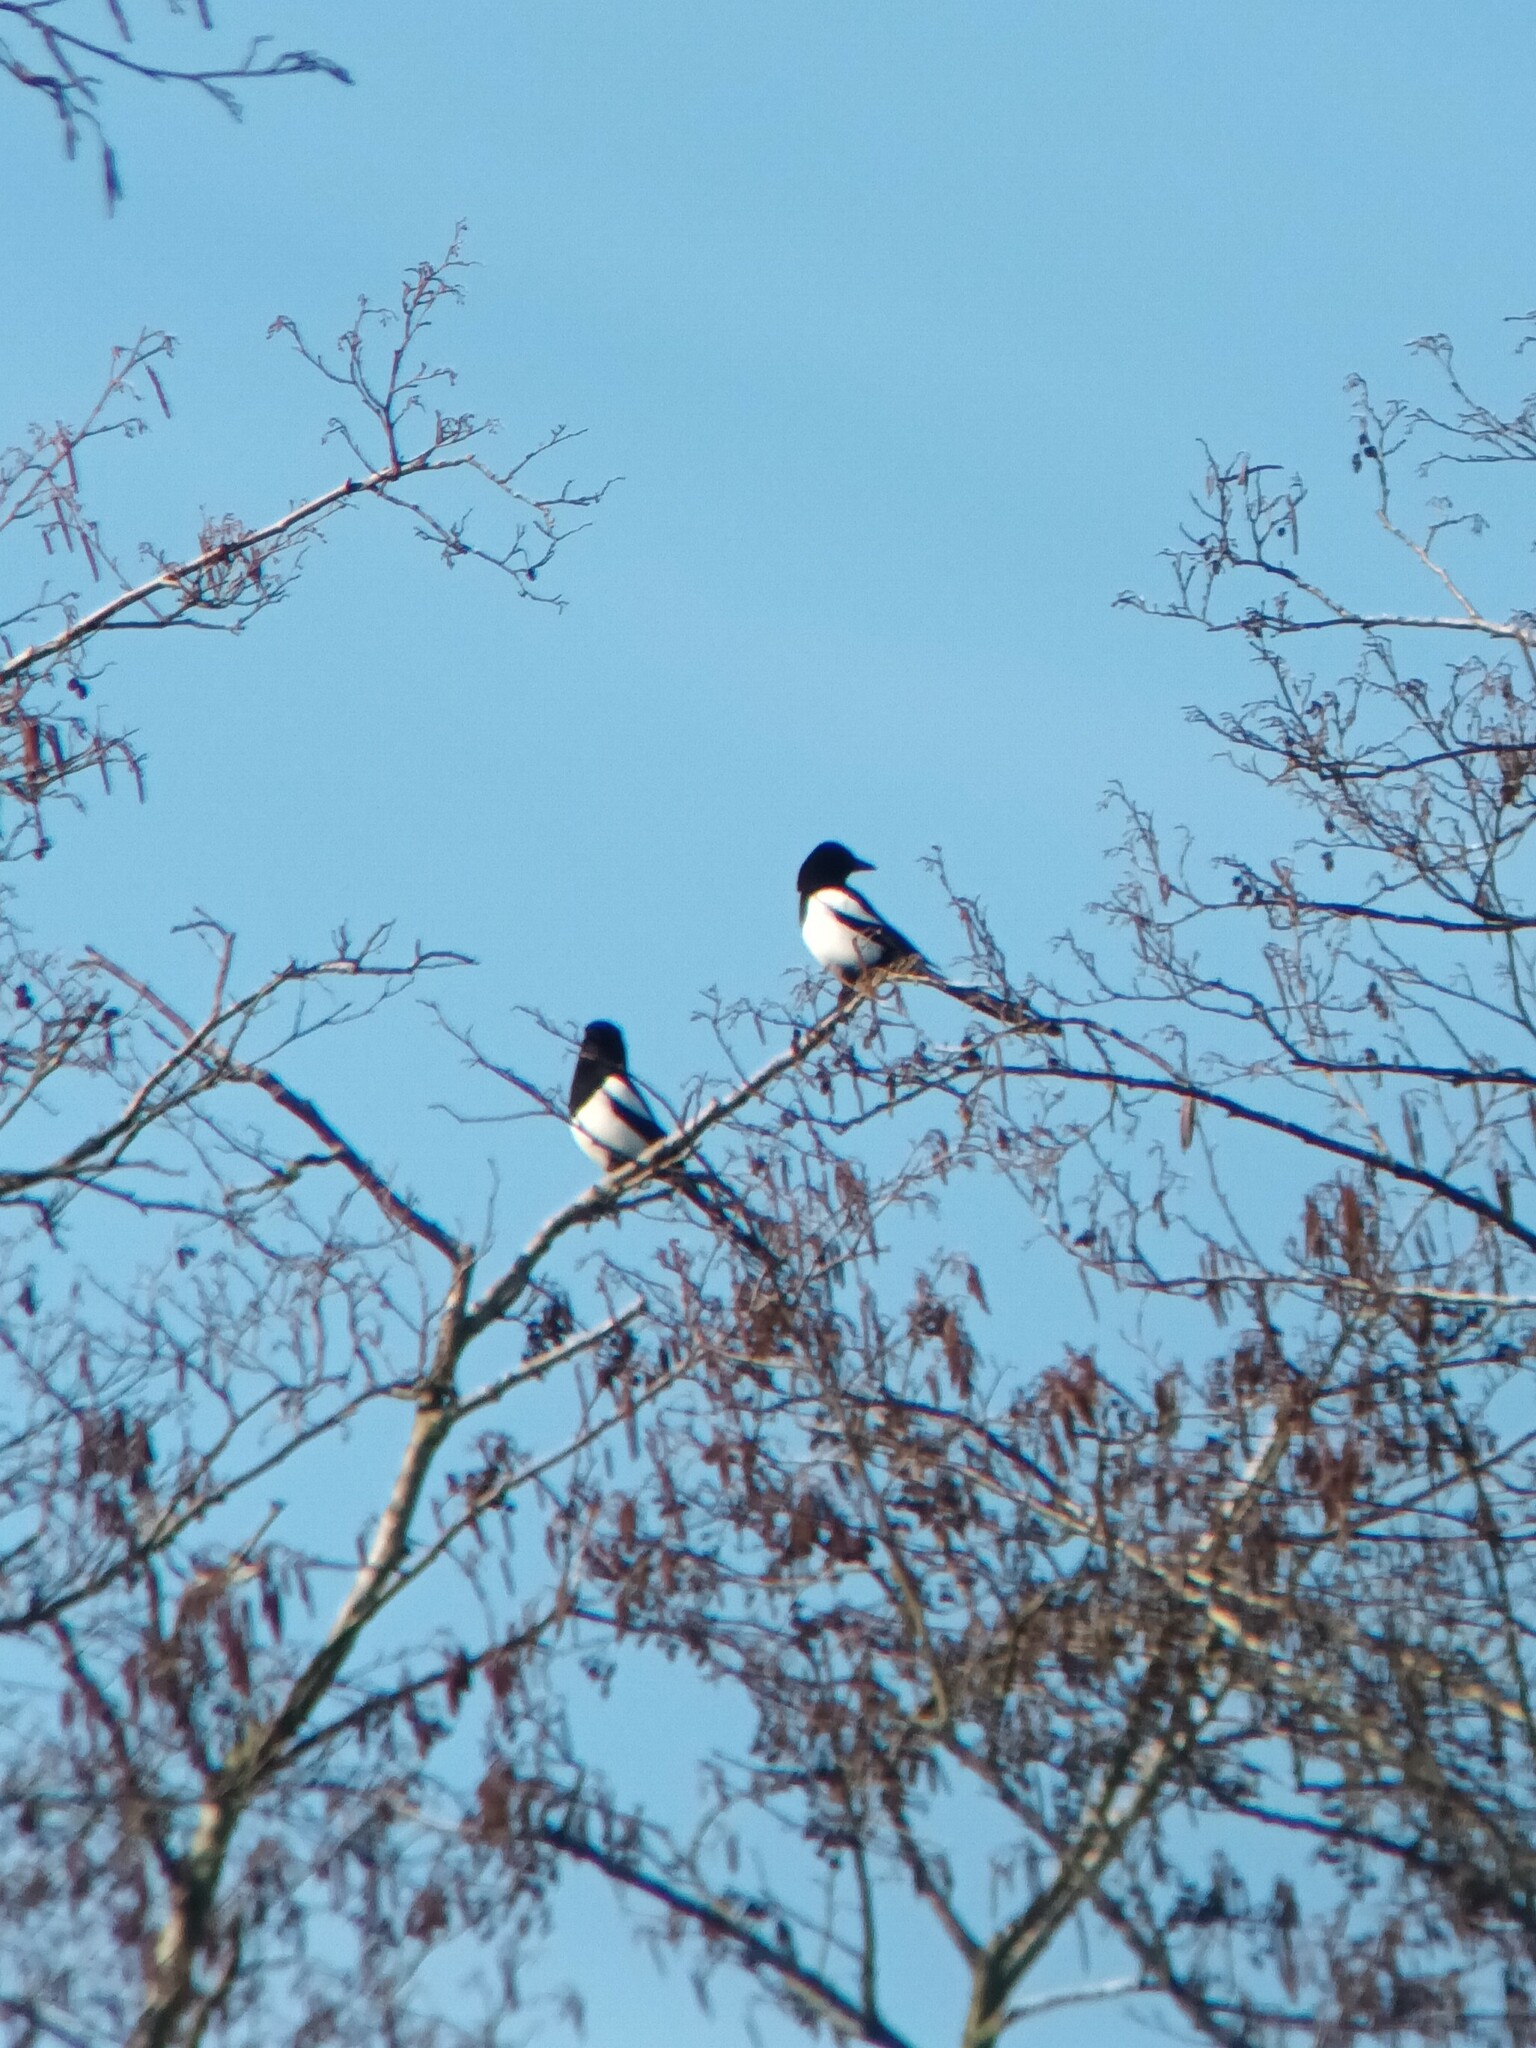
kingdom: Animalia
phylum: Chordata
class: Aves
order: Passeriformes
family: Corvidae
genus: Pica
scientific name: Pica pica
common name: Eurasian magpie
